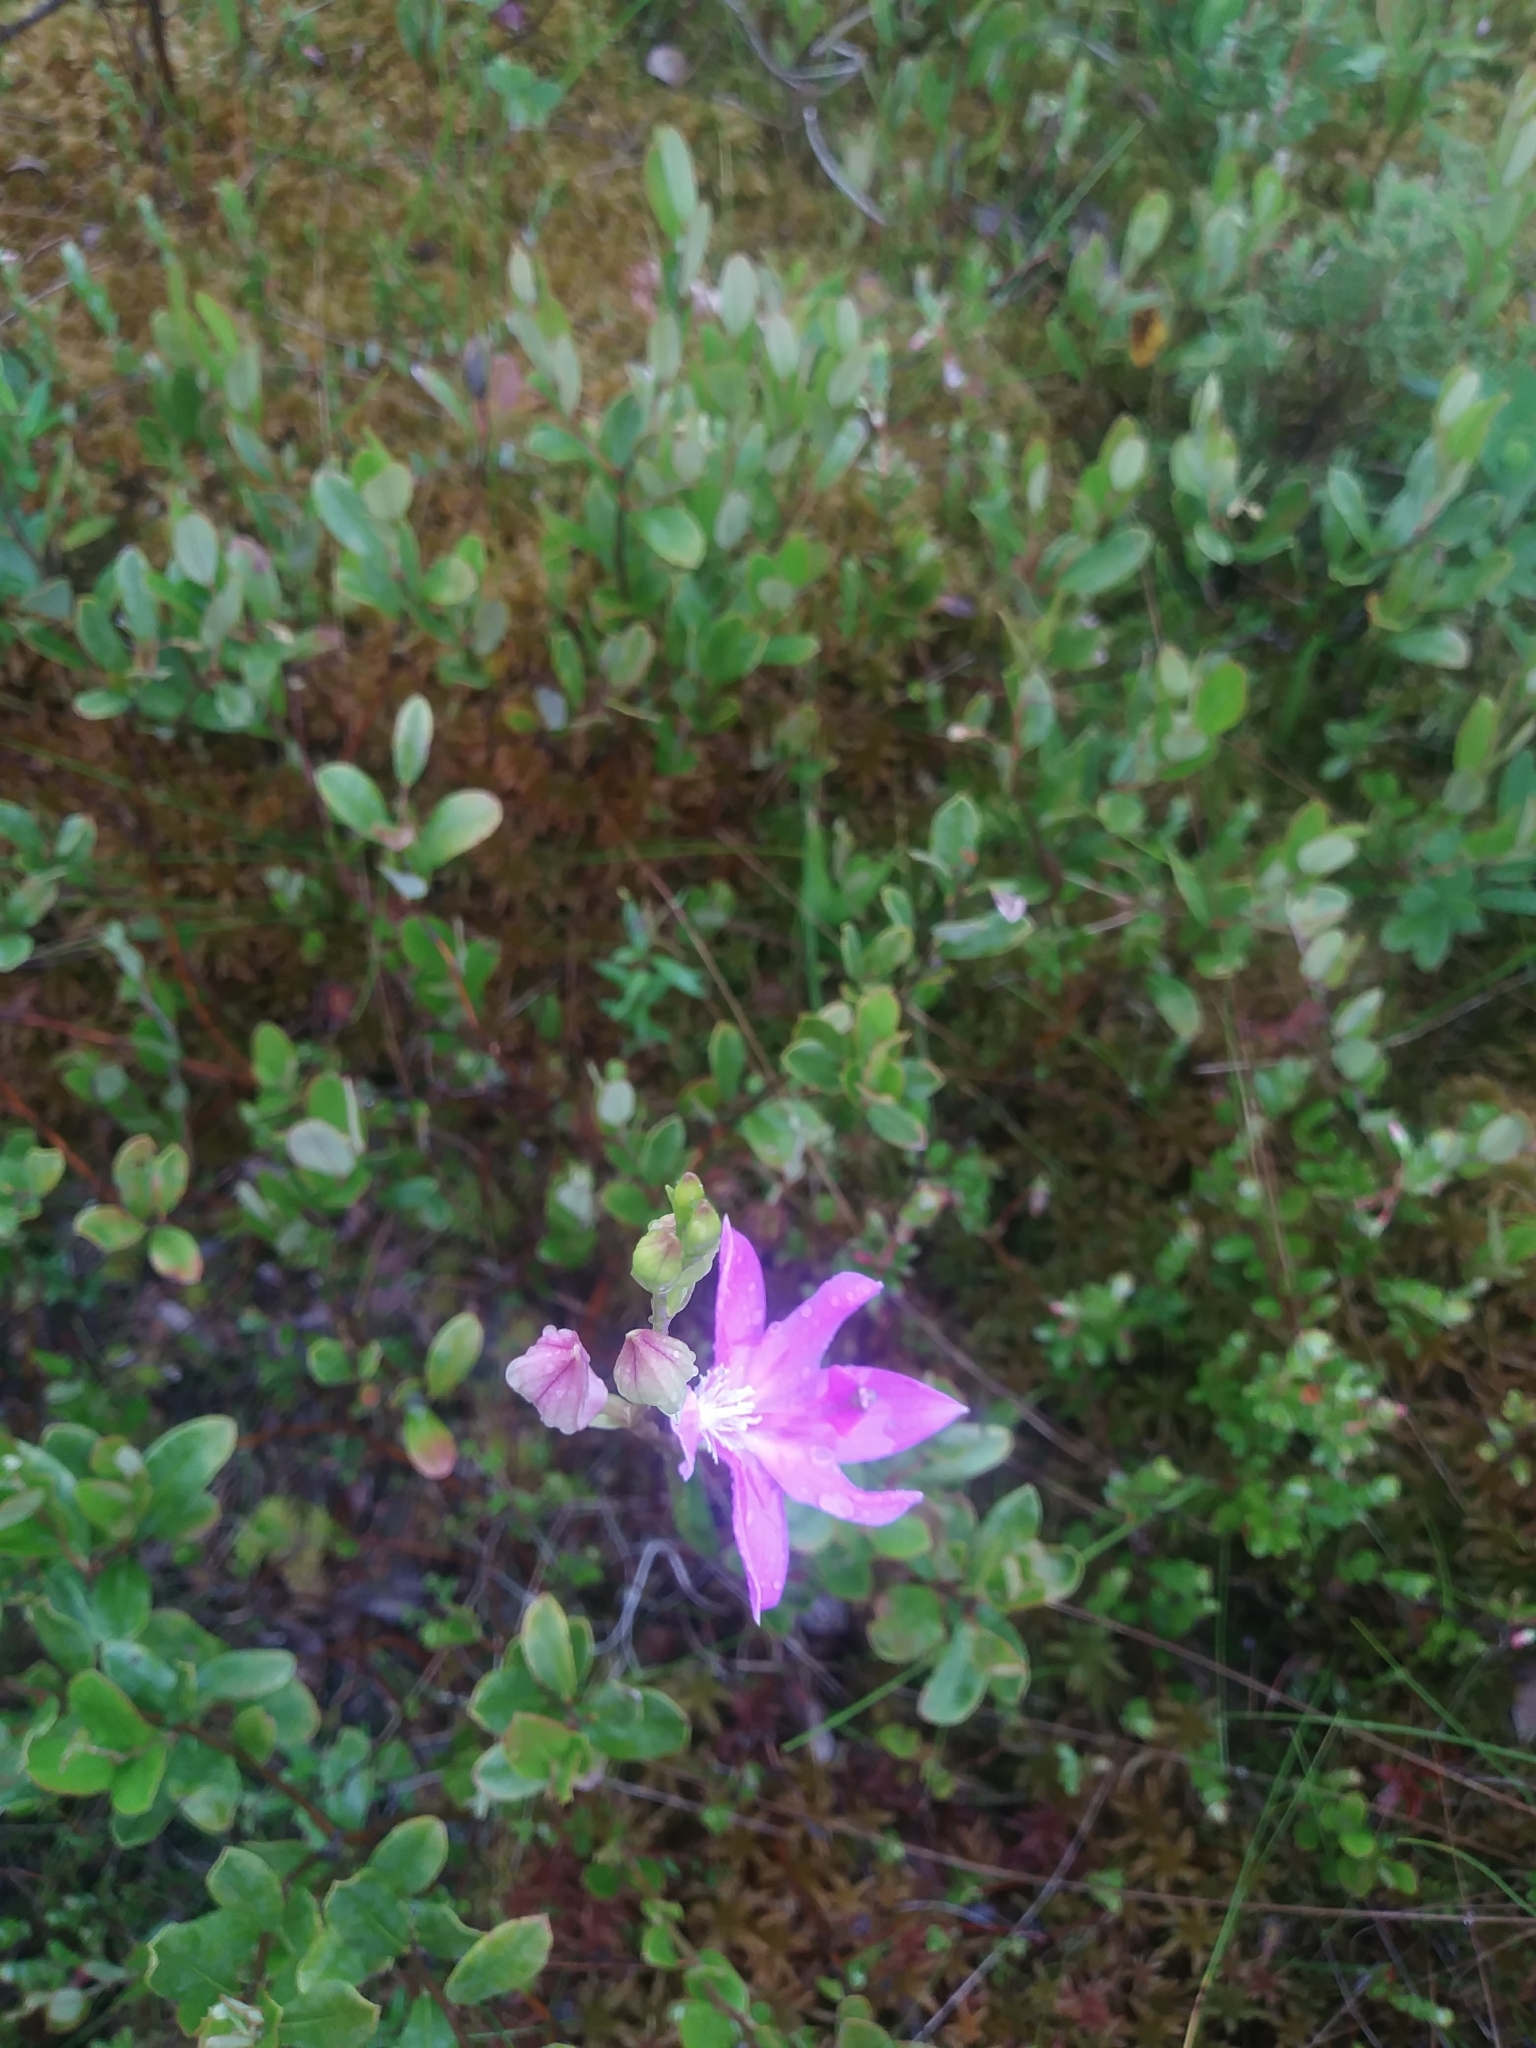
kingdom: Plantae
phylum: Tracheophyta
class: Liliopsida
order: Asparagales
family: Orchidaceae
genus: Calopogon
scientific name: Calopogon tuberosus
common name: Grass-pink
